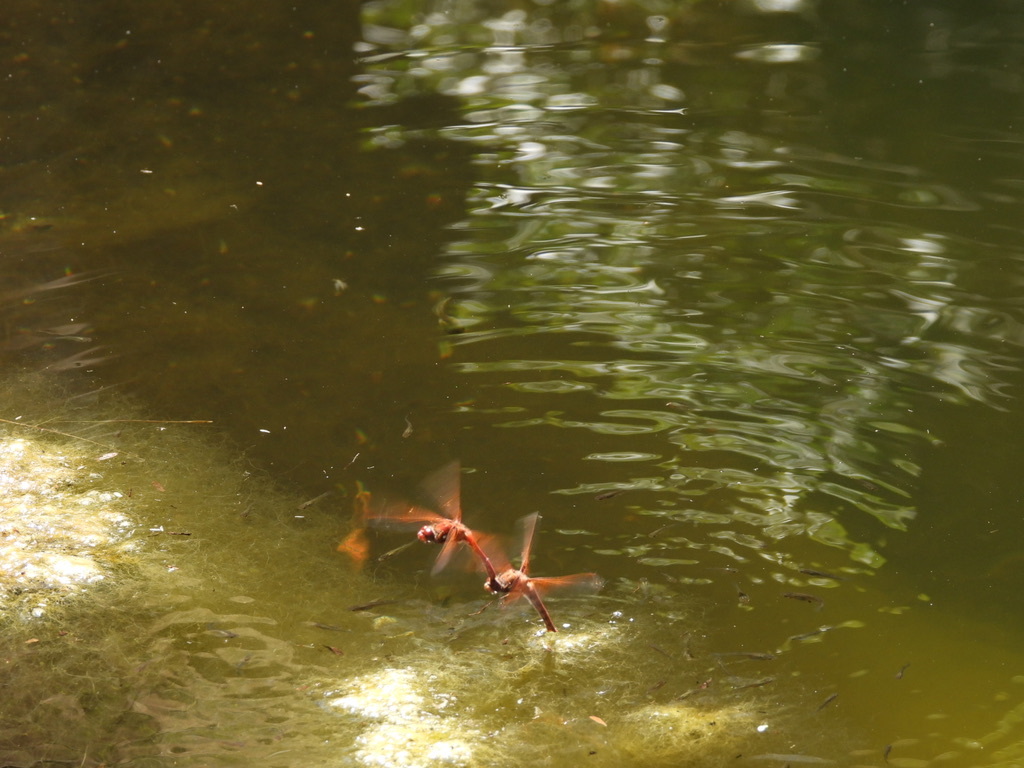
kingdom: Animalia
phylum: Arthropoda
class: Insecta
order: Odonata
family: Libellulidae
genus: Sympetrum
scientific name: Sympetrum illotum
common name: Cardinal meadowhawk
